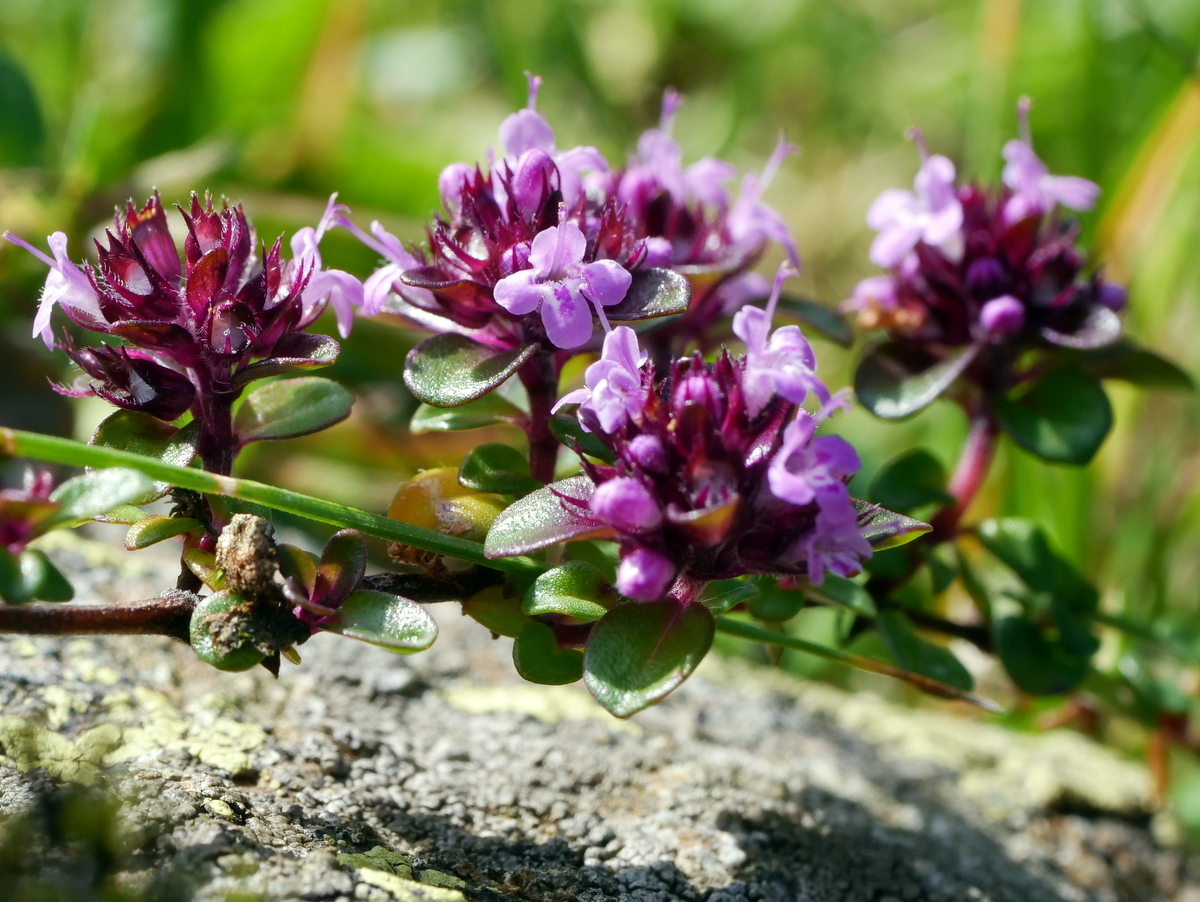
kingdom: Plantae
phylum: Tracheophyta
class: Magnoliopsida
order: Lamiales
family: Lamiaceae
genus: Thymus
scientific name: Thymus praecox
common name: Wild thyme
